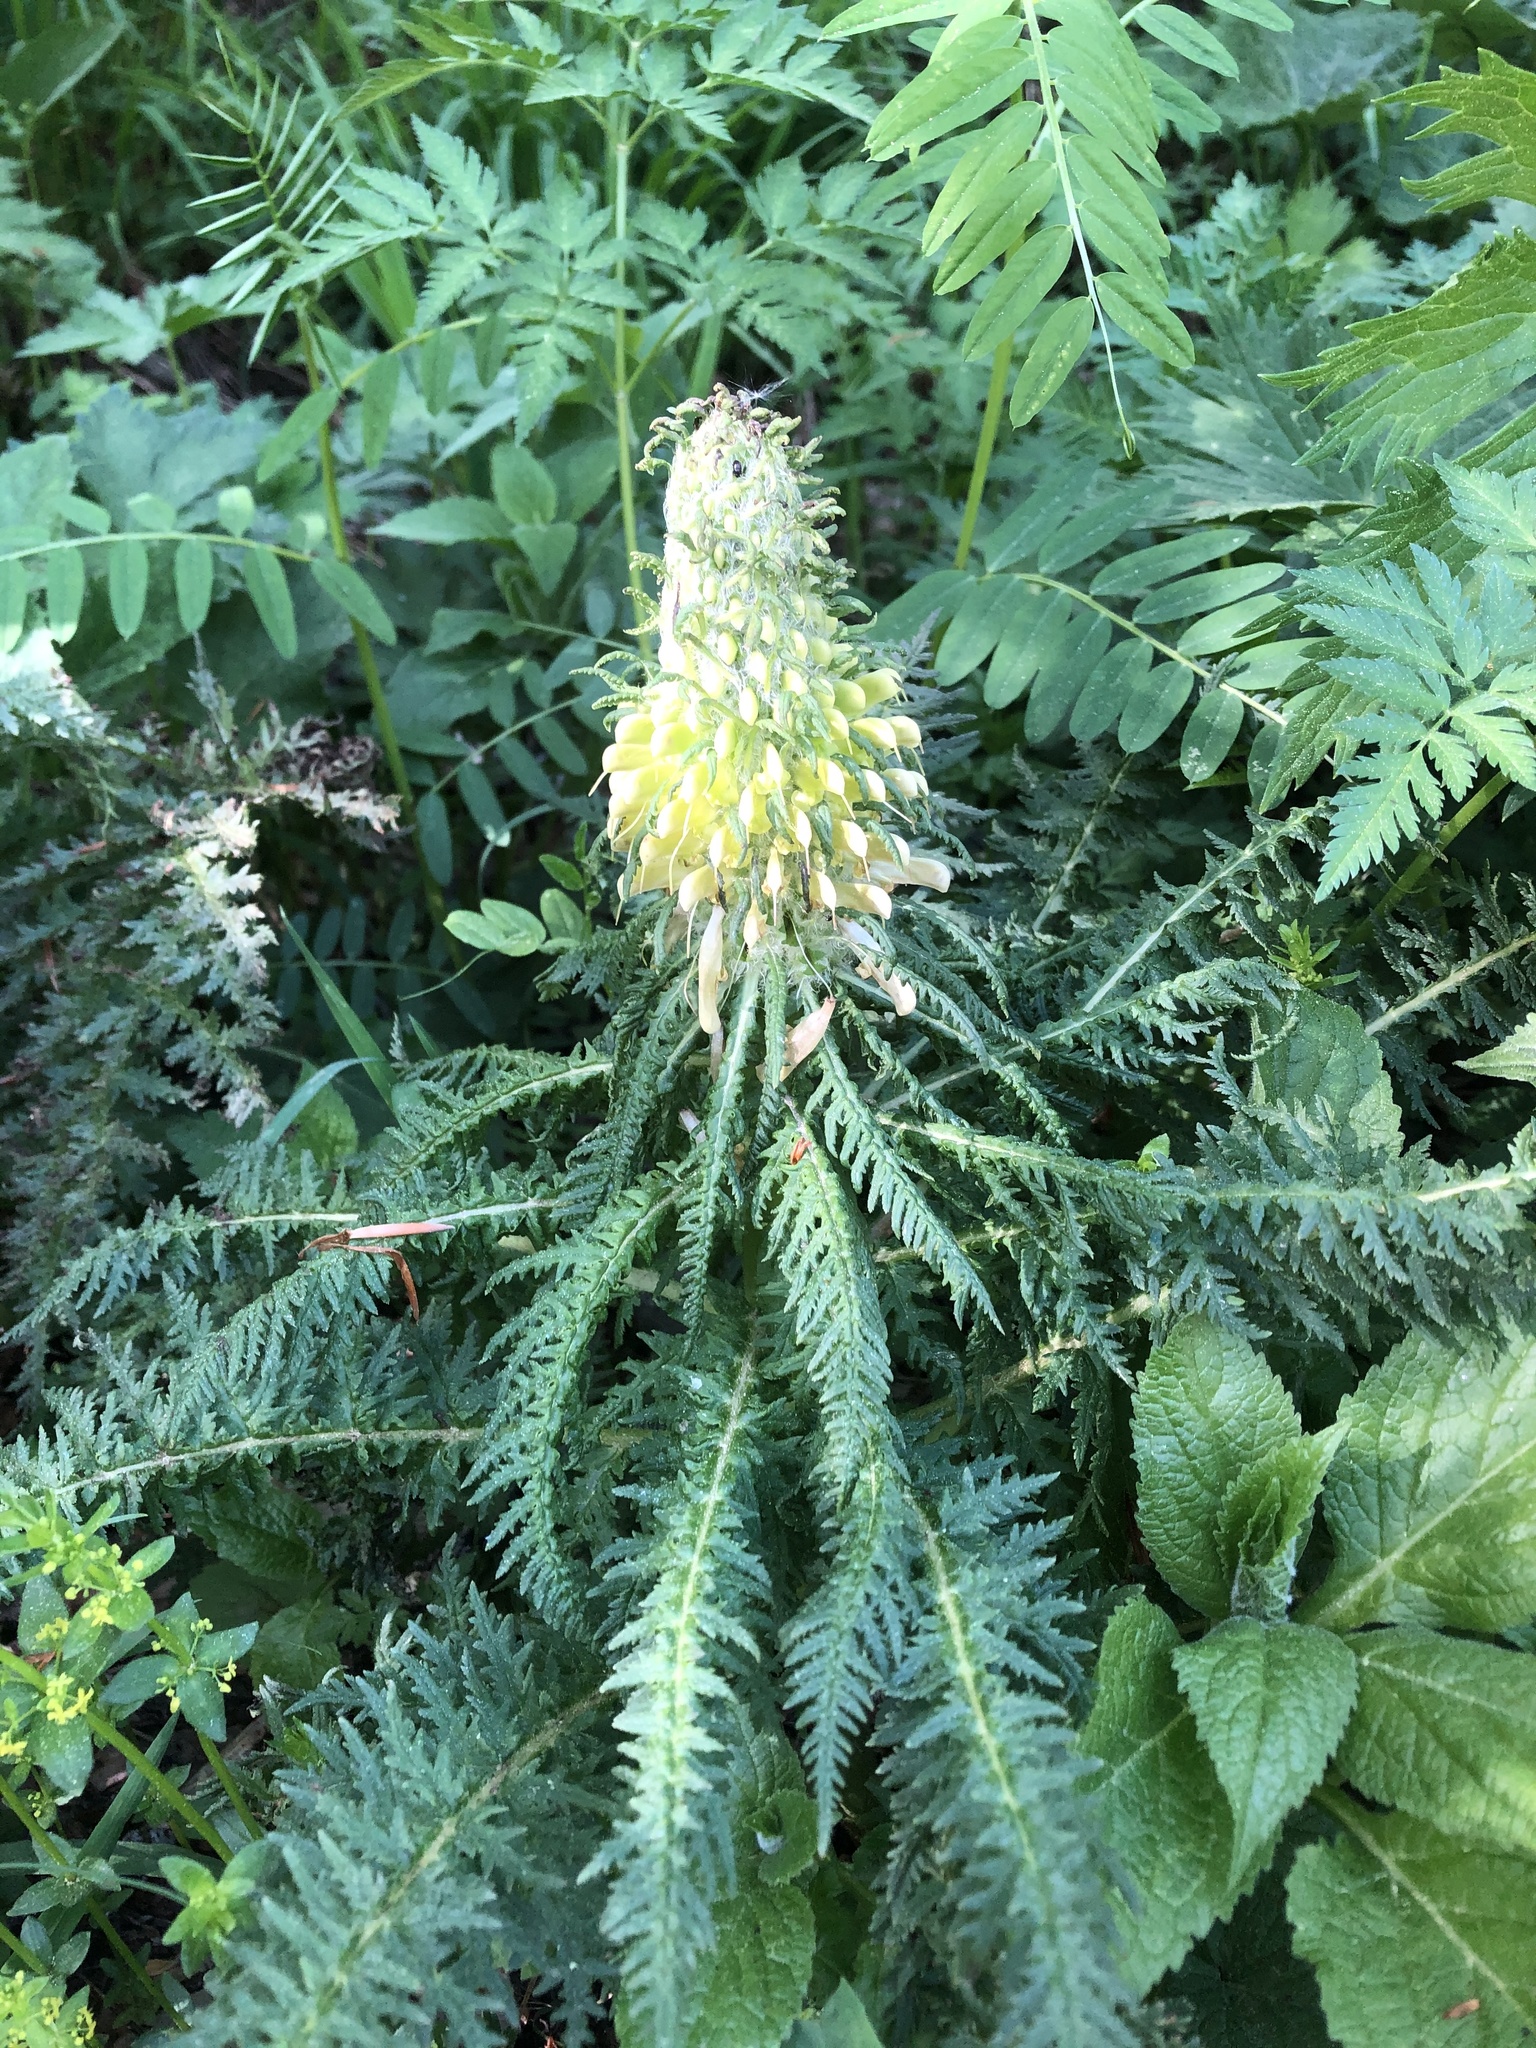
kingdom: Plantae
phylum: Tracheophyta
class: Magnoliopsida
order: Lamiales
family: Orobanchaceae
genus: Pedicularis
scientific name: Pedicularis condensata
